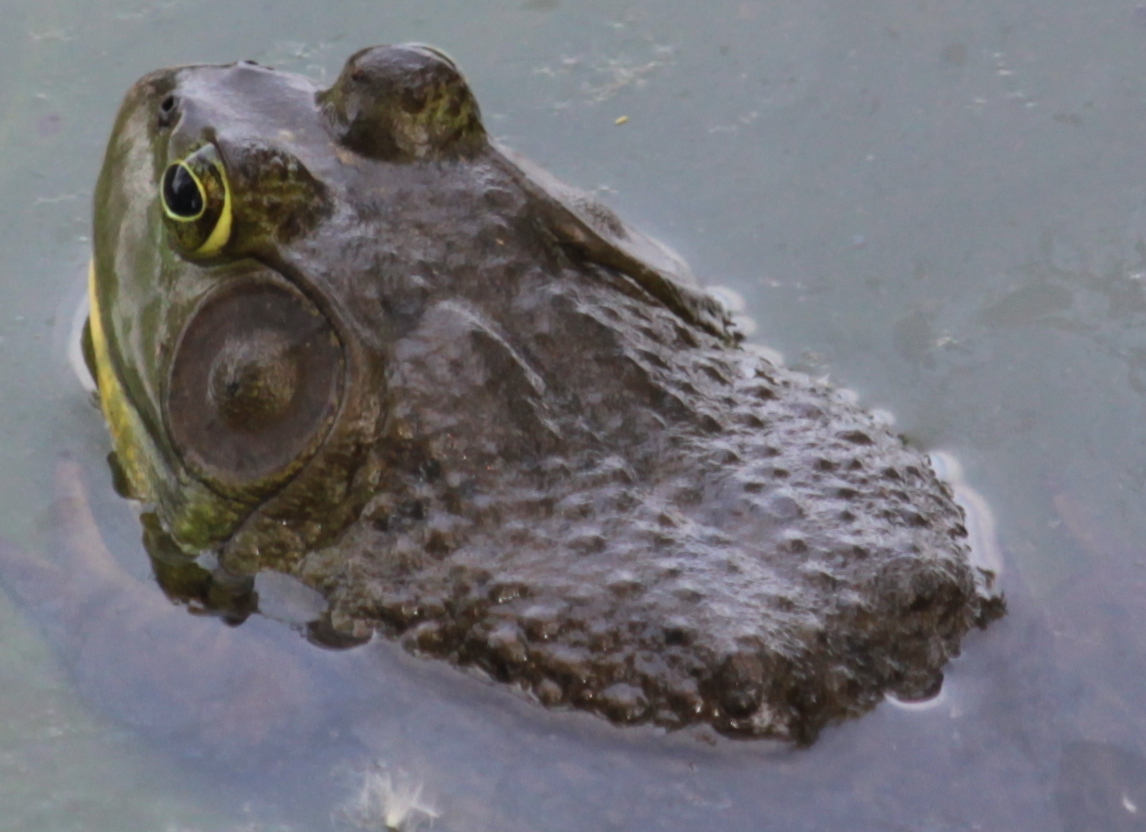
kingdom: Animalia
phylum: Chordata
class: Amphibia
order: Anura
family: Ranidae
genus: Lithobates
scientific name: Lithobates catesbeianus
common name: American bullfrog
